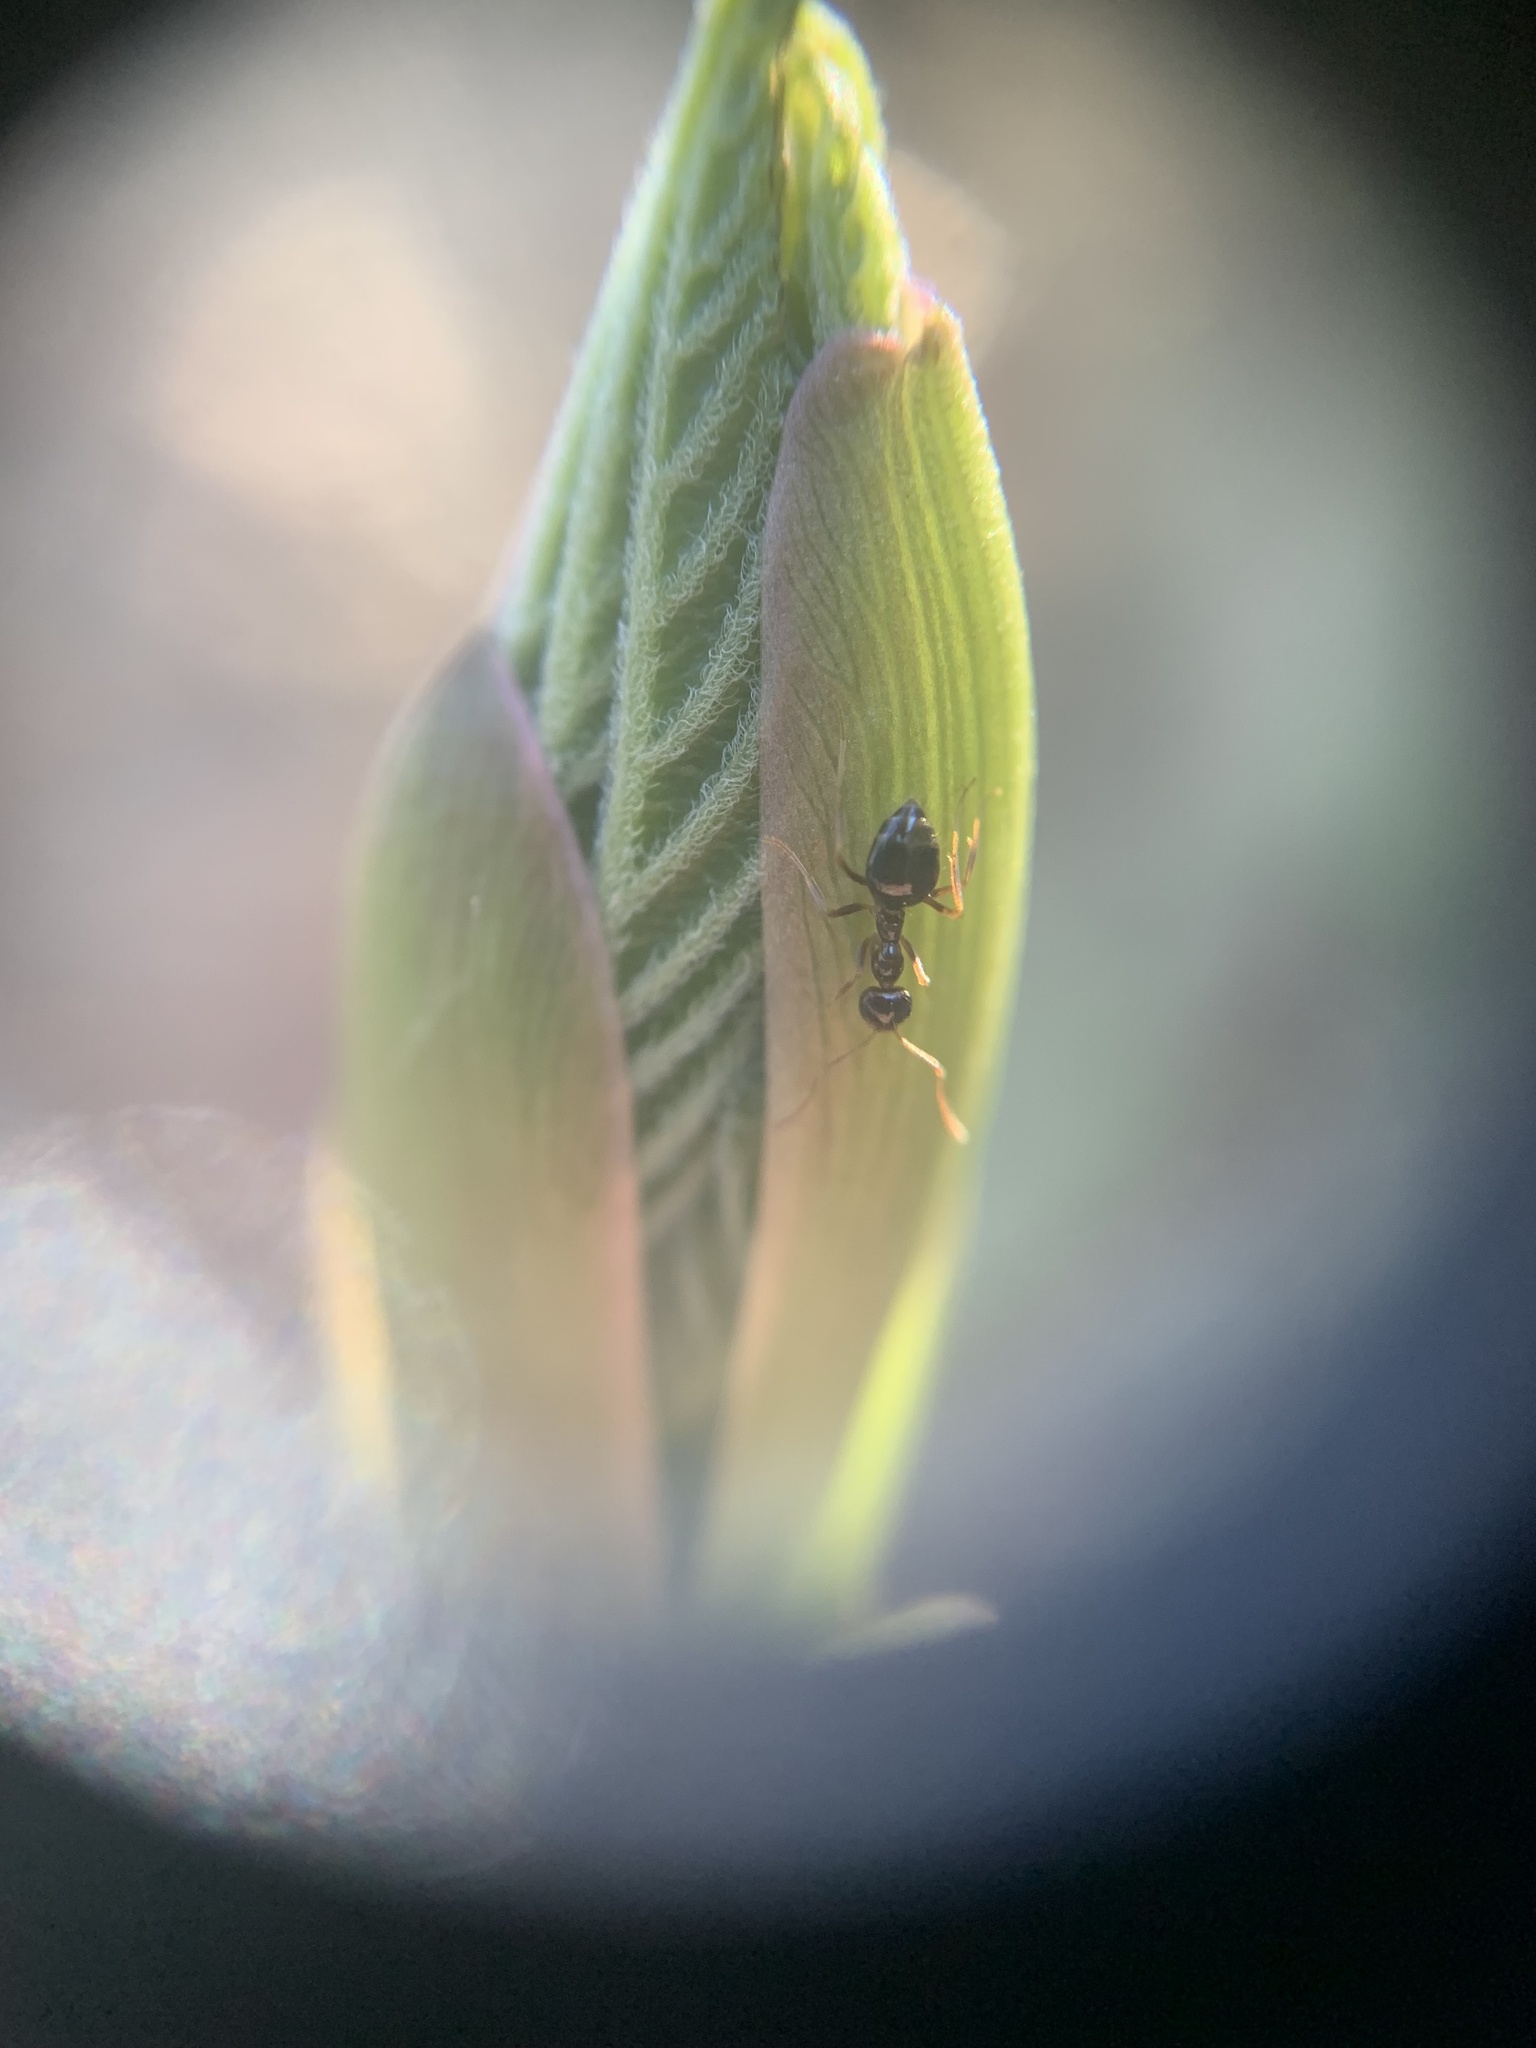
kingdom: Animalia
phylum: Arthropoda
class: Insecta
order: Hymenoptera
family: Formicidae
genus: Prenolepis
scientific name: Prenolepis imparis
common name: Small honey ant
